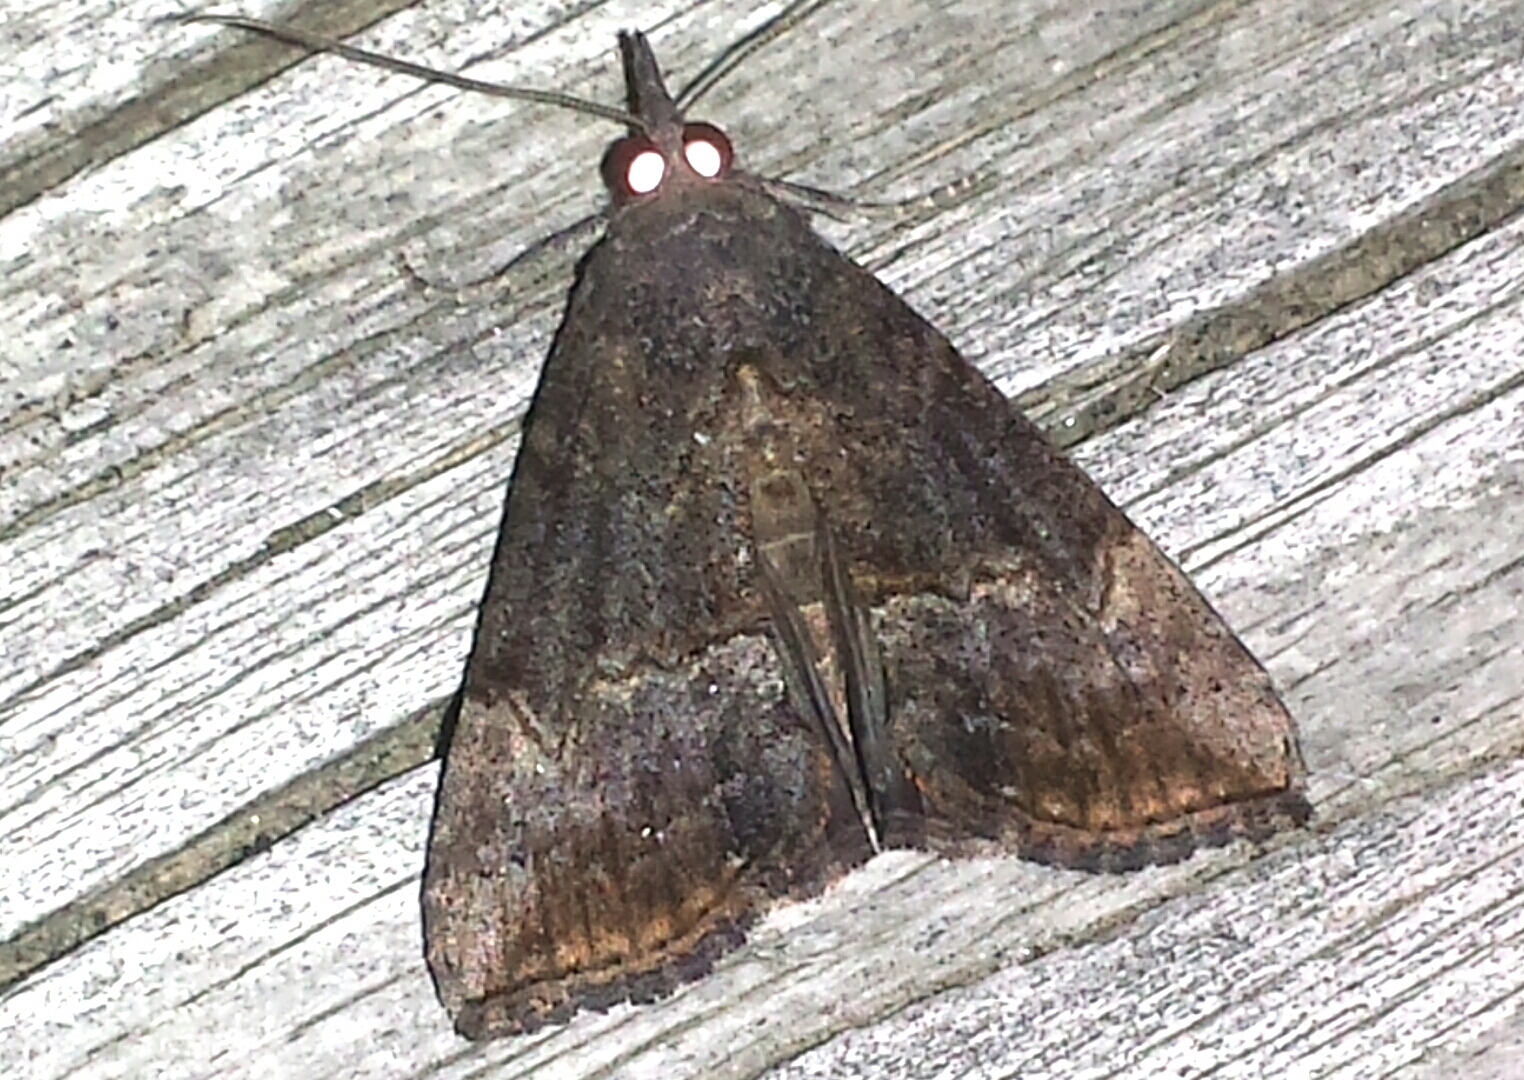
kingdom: Animalia
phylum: Arthropoda
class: Insecta
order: Lepidoptera
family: Erebidae
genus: Hypena
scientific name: Hypena scabra
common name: Green cloverworm
